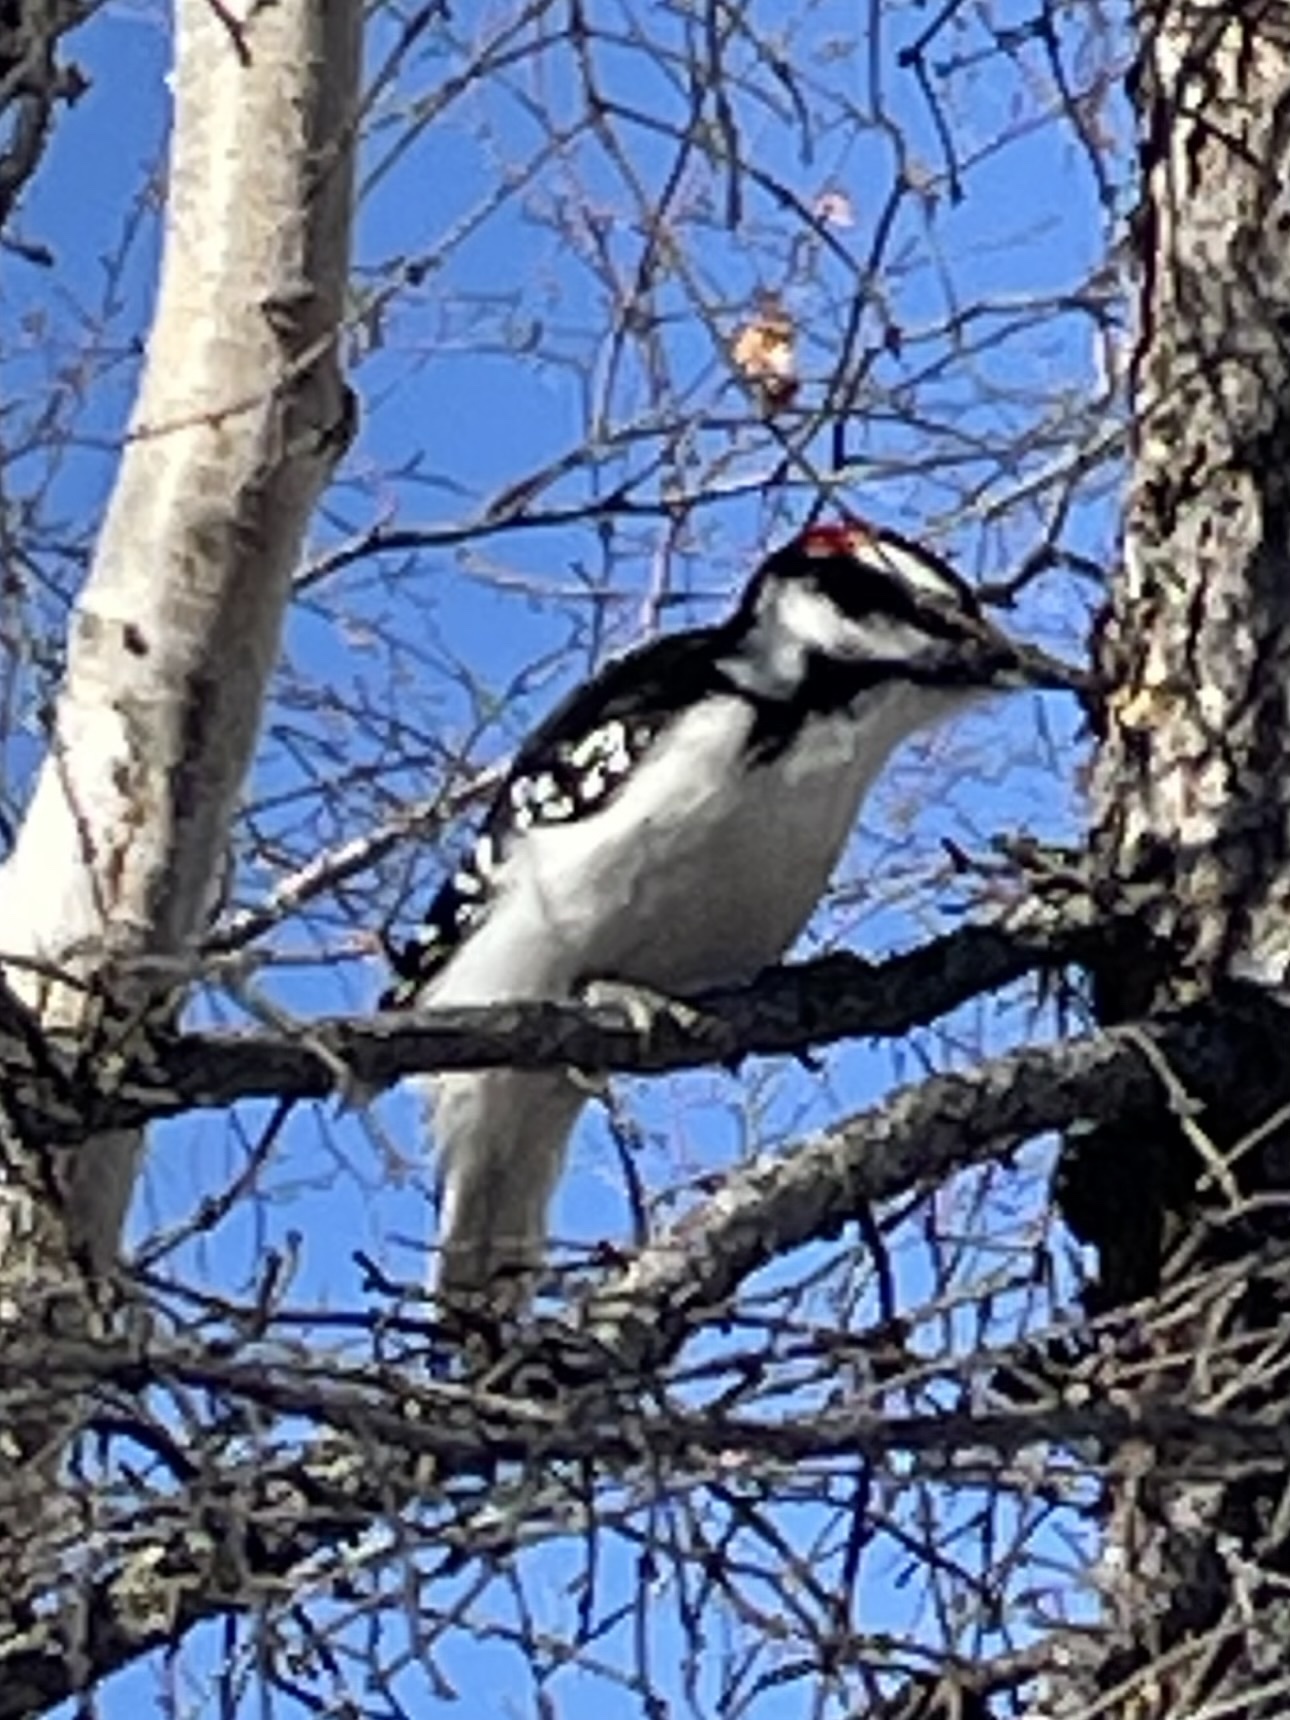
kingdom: Animalia
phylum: Chordata
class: Aves
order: Piciformes
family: Picidae
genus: Leuconotopicus
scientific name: Leuconotopicus villosus
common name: Hairy woodpecker
